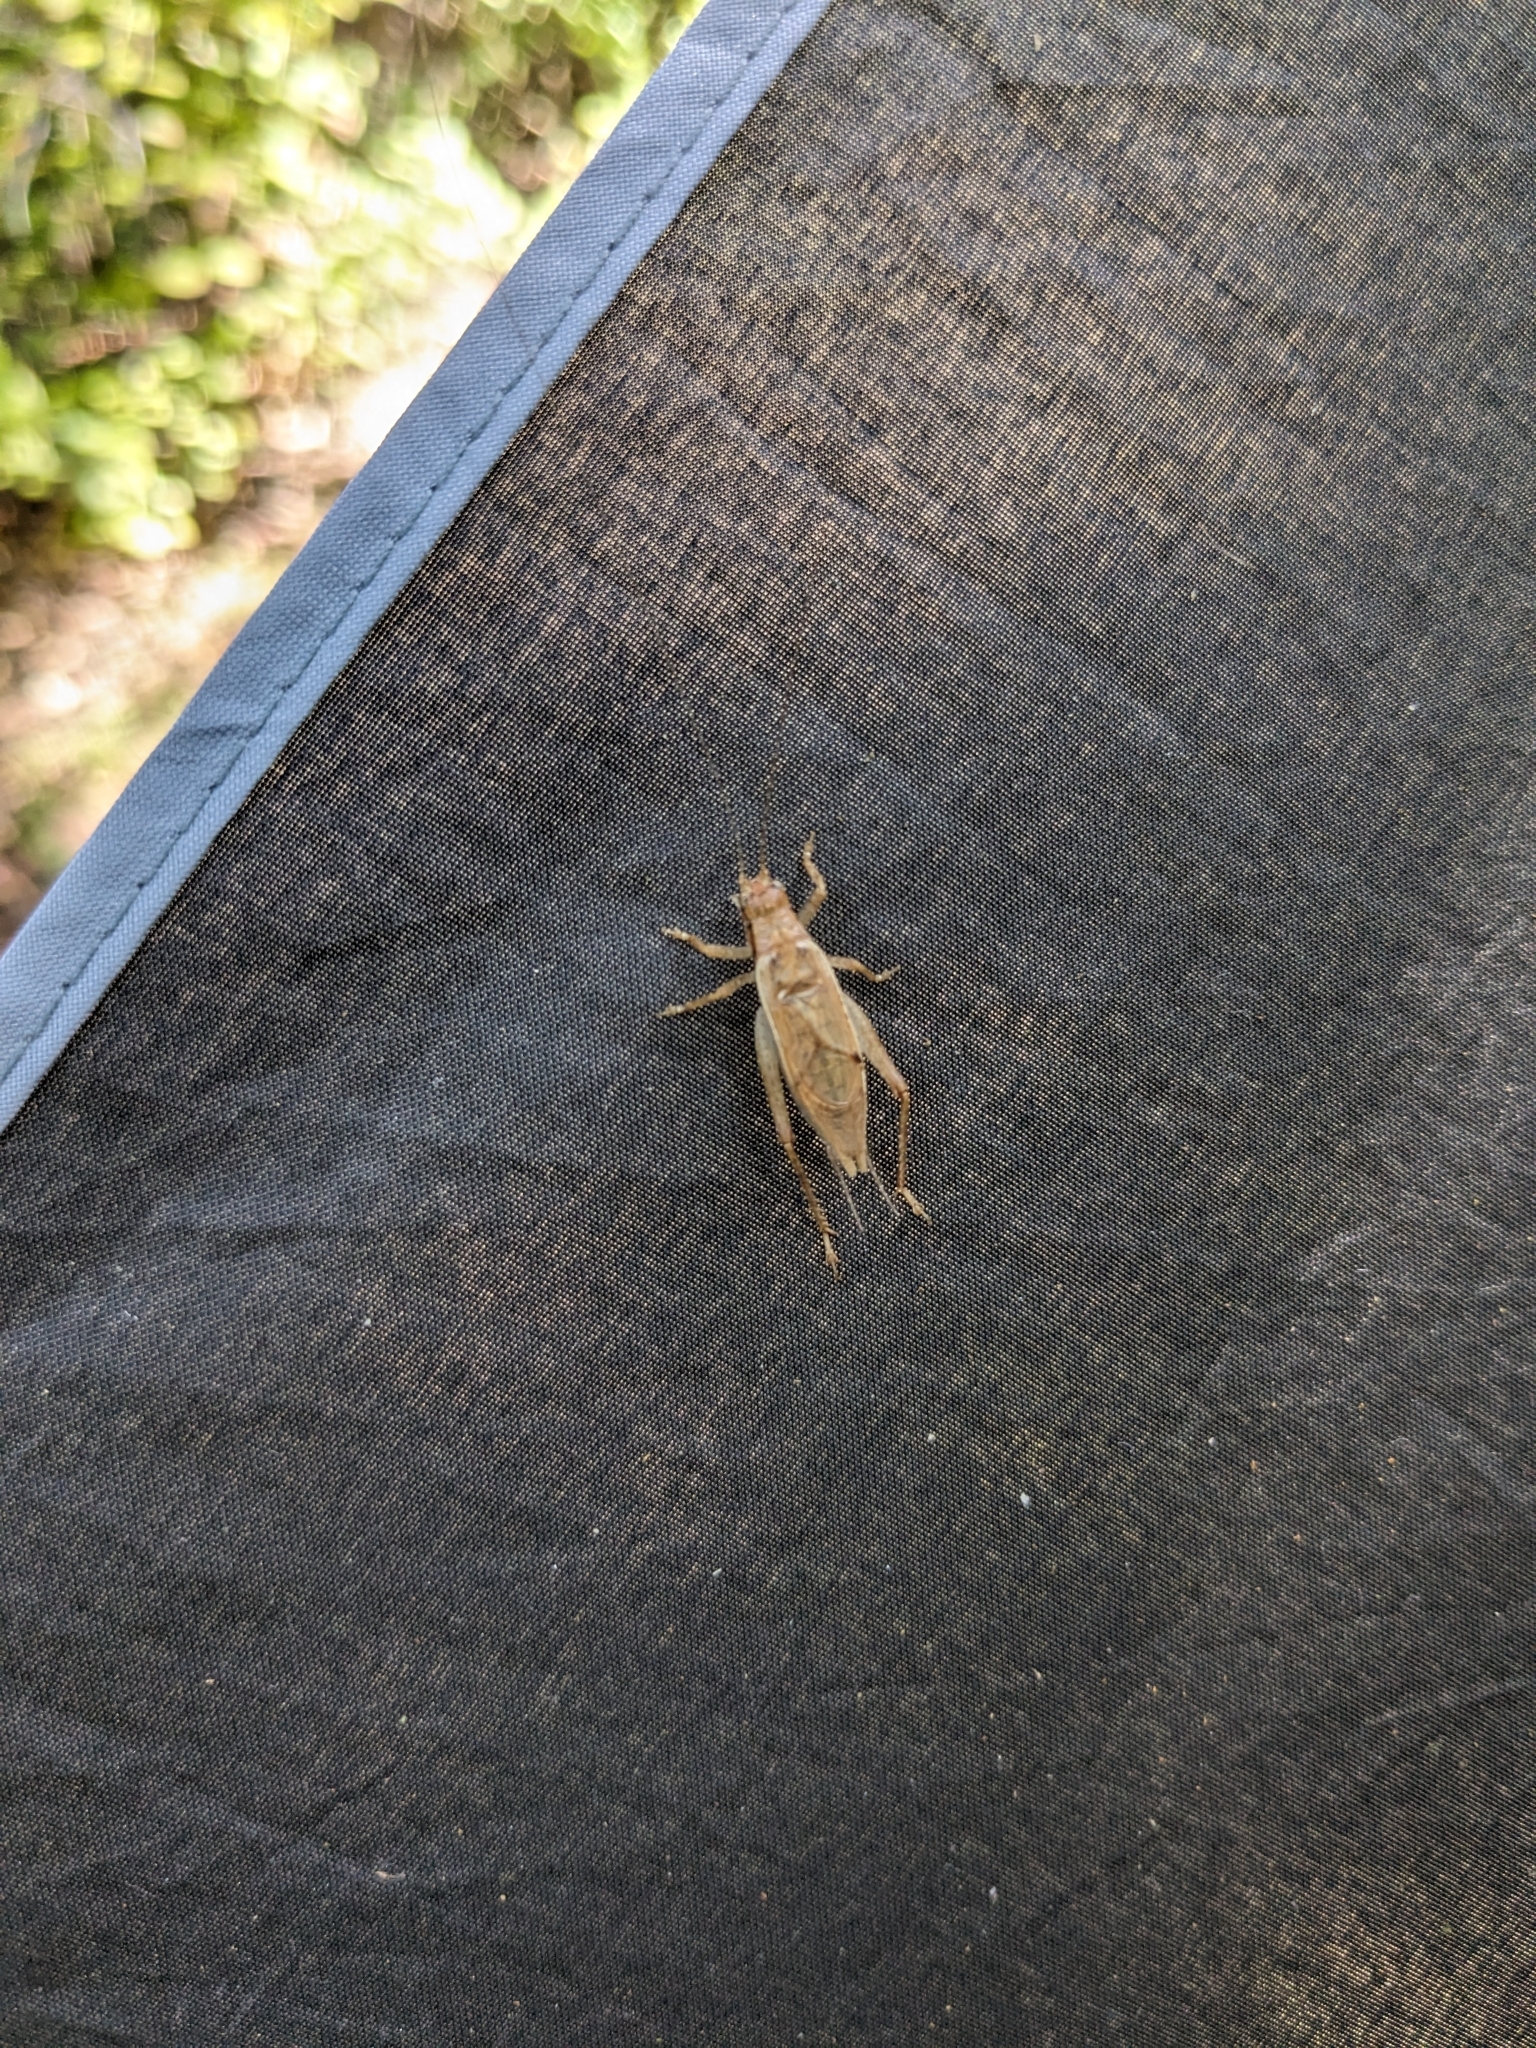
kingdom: Animalia
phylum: Arthropoda
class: Insecta
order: Orthoptera
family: Gryllidae
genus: Hapithus
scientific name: Hapithus saltator
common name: Jumping bush cricket
